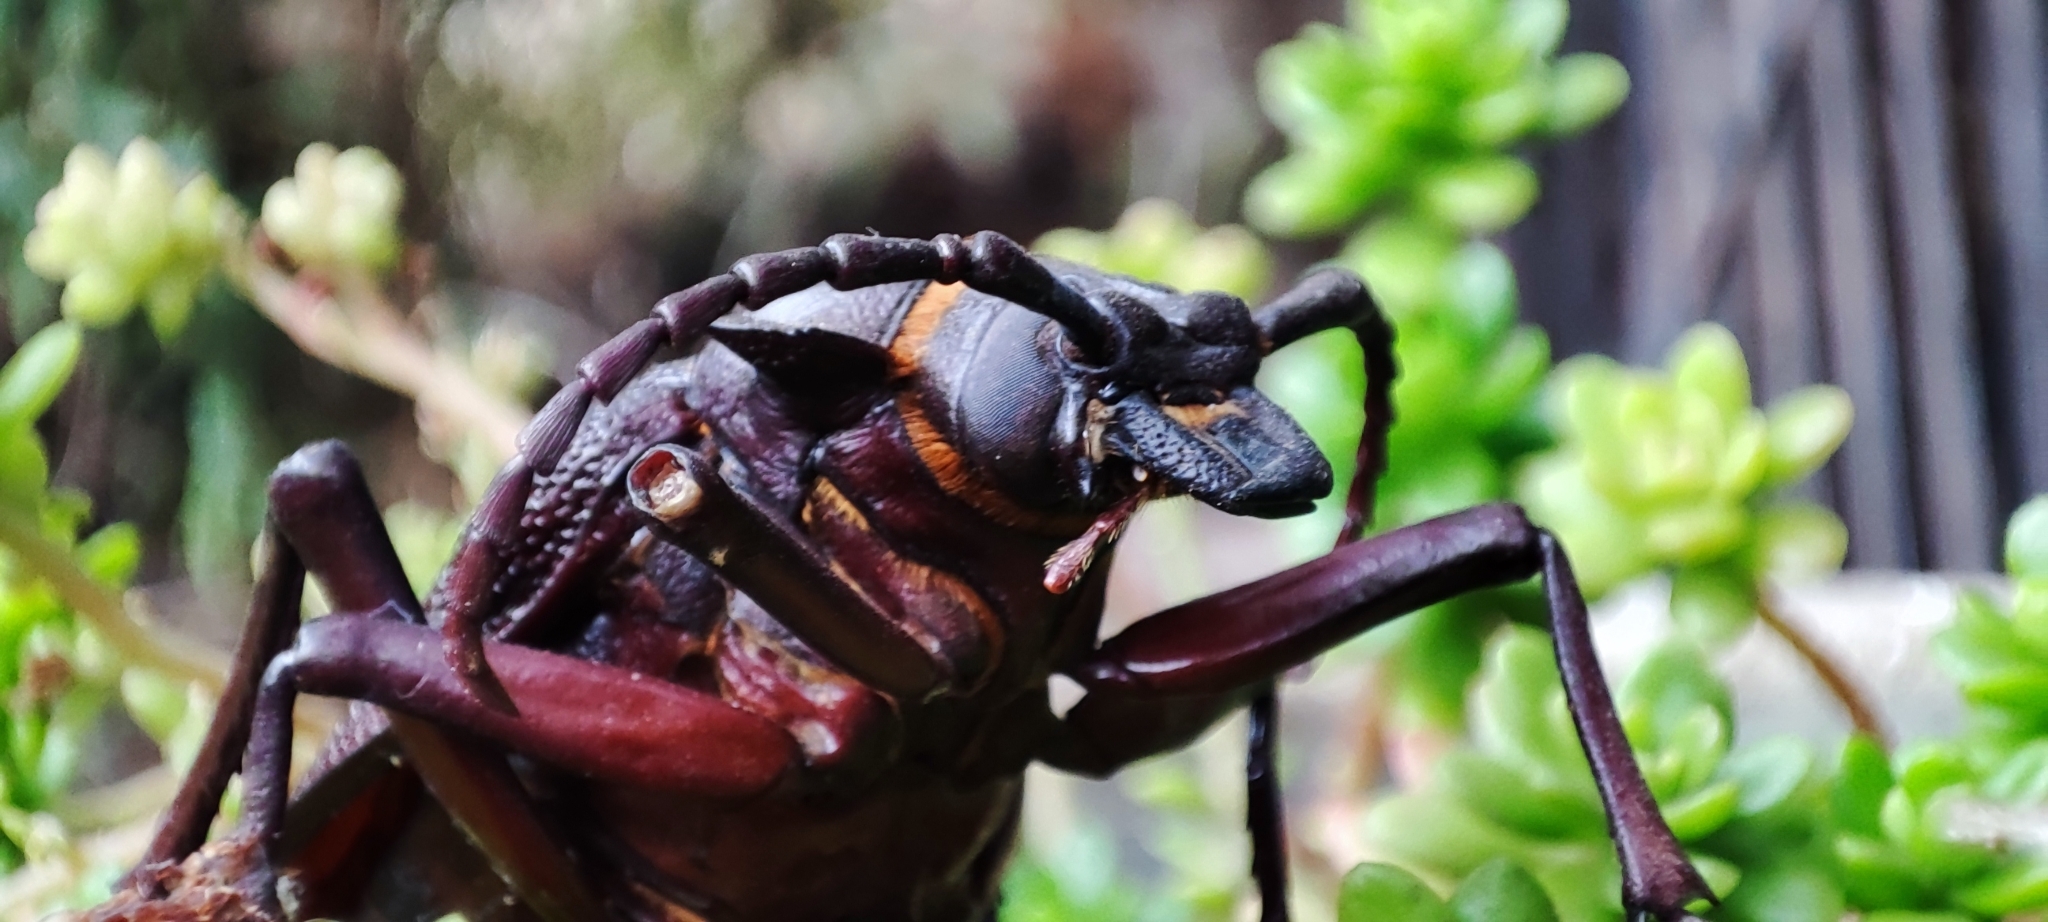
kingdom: Animalia
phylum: Arthropoda
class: Insecta
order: Coleoptera
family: Cerambycidae
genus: Acanthinodera
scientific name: Acanthinodera cumingii
